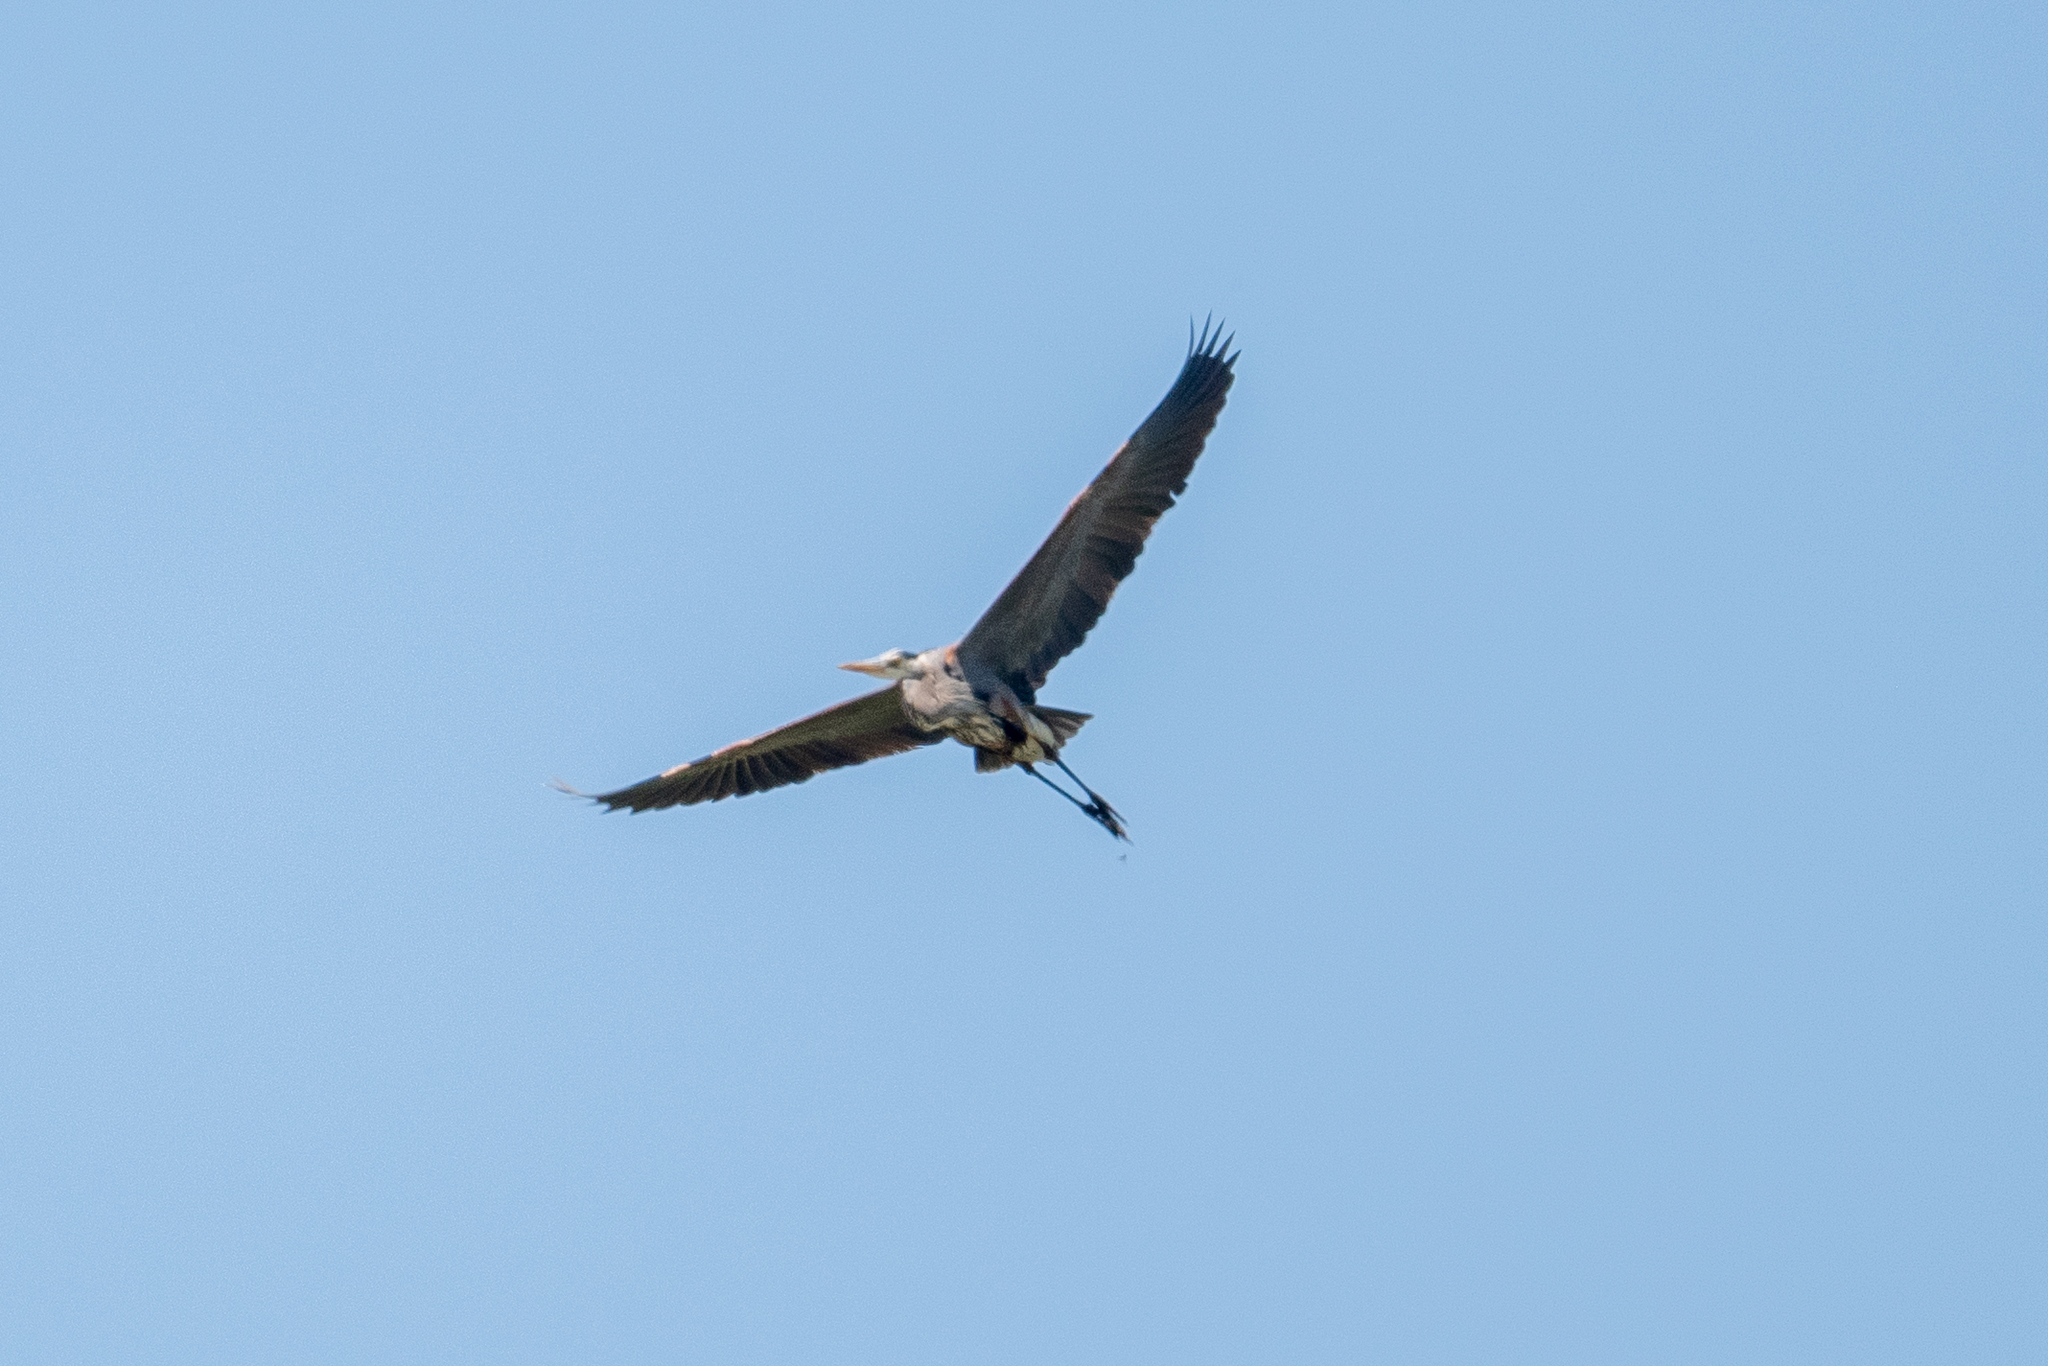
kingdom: Animalia
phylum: Chordata
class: Aves
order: Pelecaniformes
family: Ardeidae
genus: Ardea
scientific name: Ardea herodias
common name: Great blue heron
